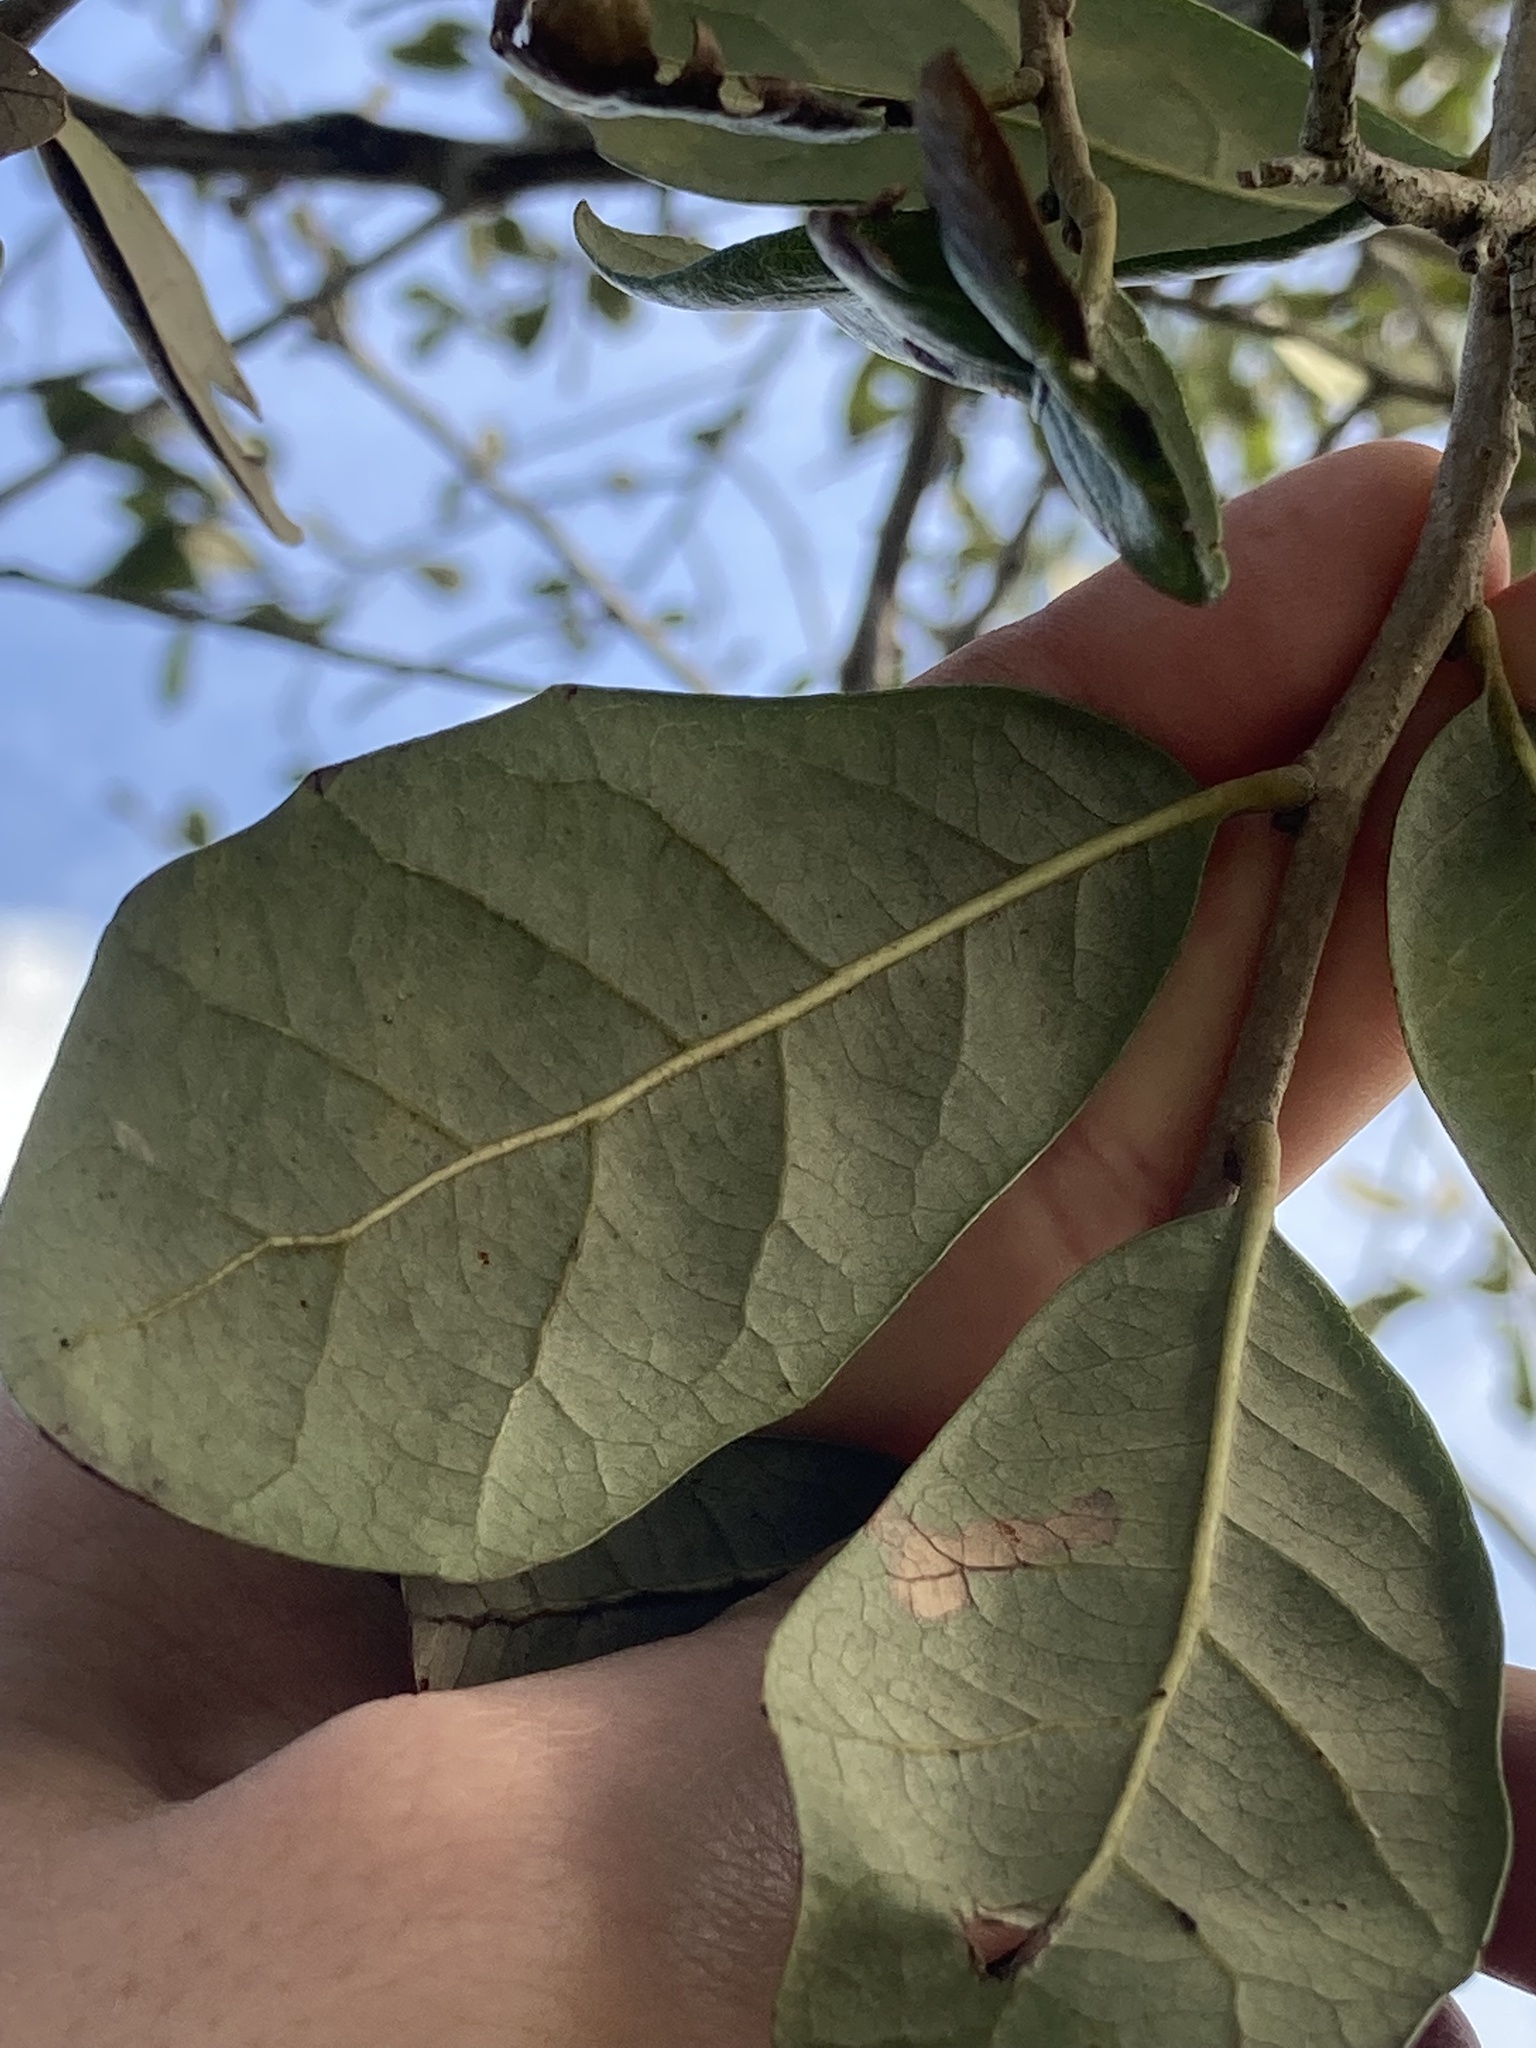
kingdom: Plantae
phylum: Tracheophyta
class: Magnoliopsida
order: Fagales
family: Fagaceae
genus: Quercus
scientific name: Quercus virginiana
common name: Southern live oak
